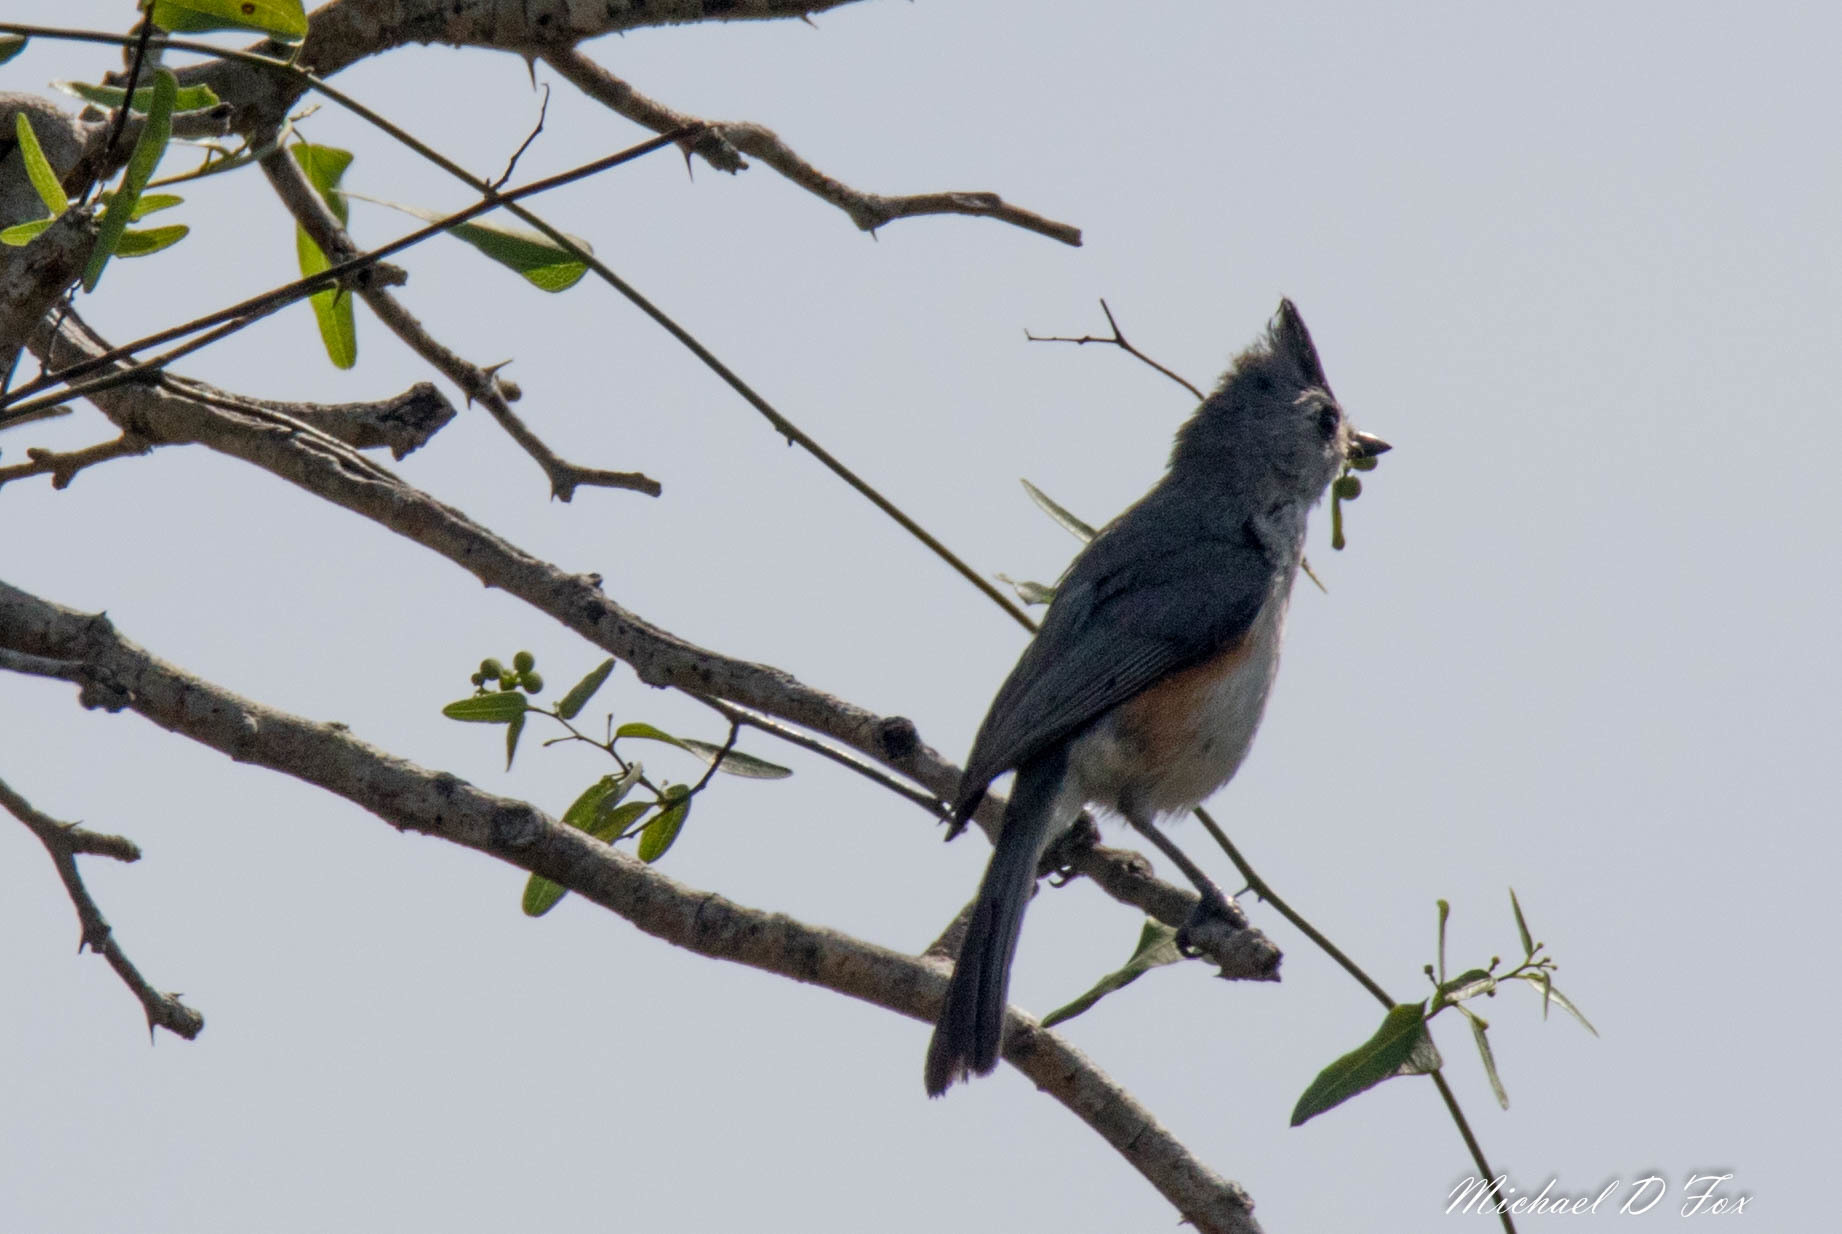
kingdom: Animalia
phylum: Chordata
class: Aves
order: Passeriformes
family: Paridae
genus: Baeolophus
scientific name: Baeolophus atricristatus
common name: Black-crested titmouse
